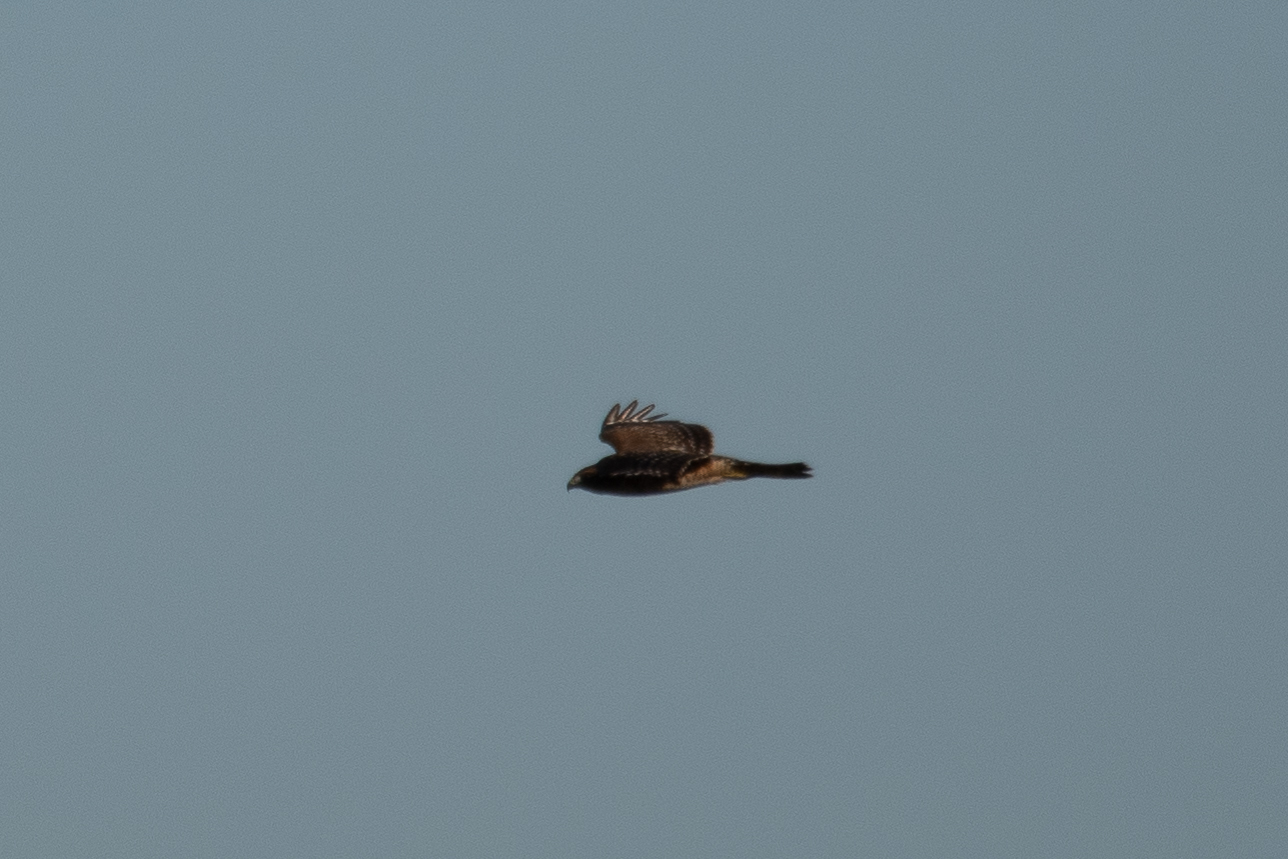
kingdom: Animalia
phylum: Chordata
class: Aves
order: Accipitriformes
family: Accipitridae
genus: Buteo
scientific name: Buteo lineatus
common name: Red-shouldered hawk
